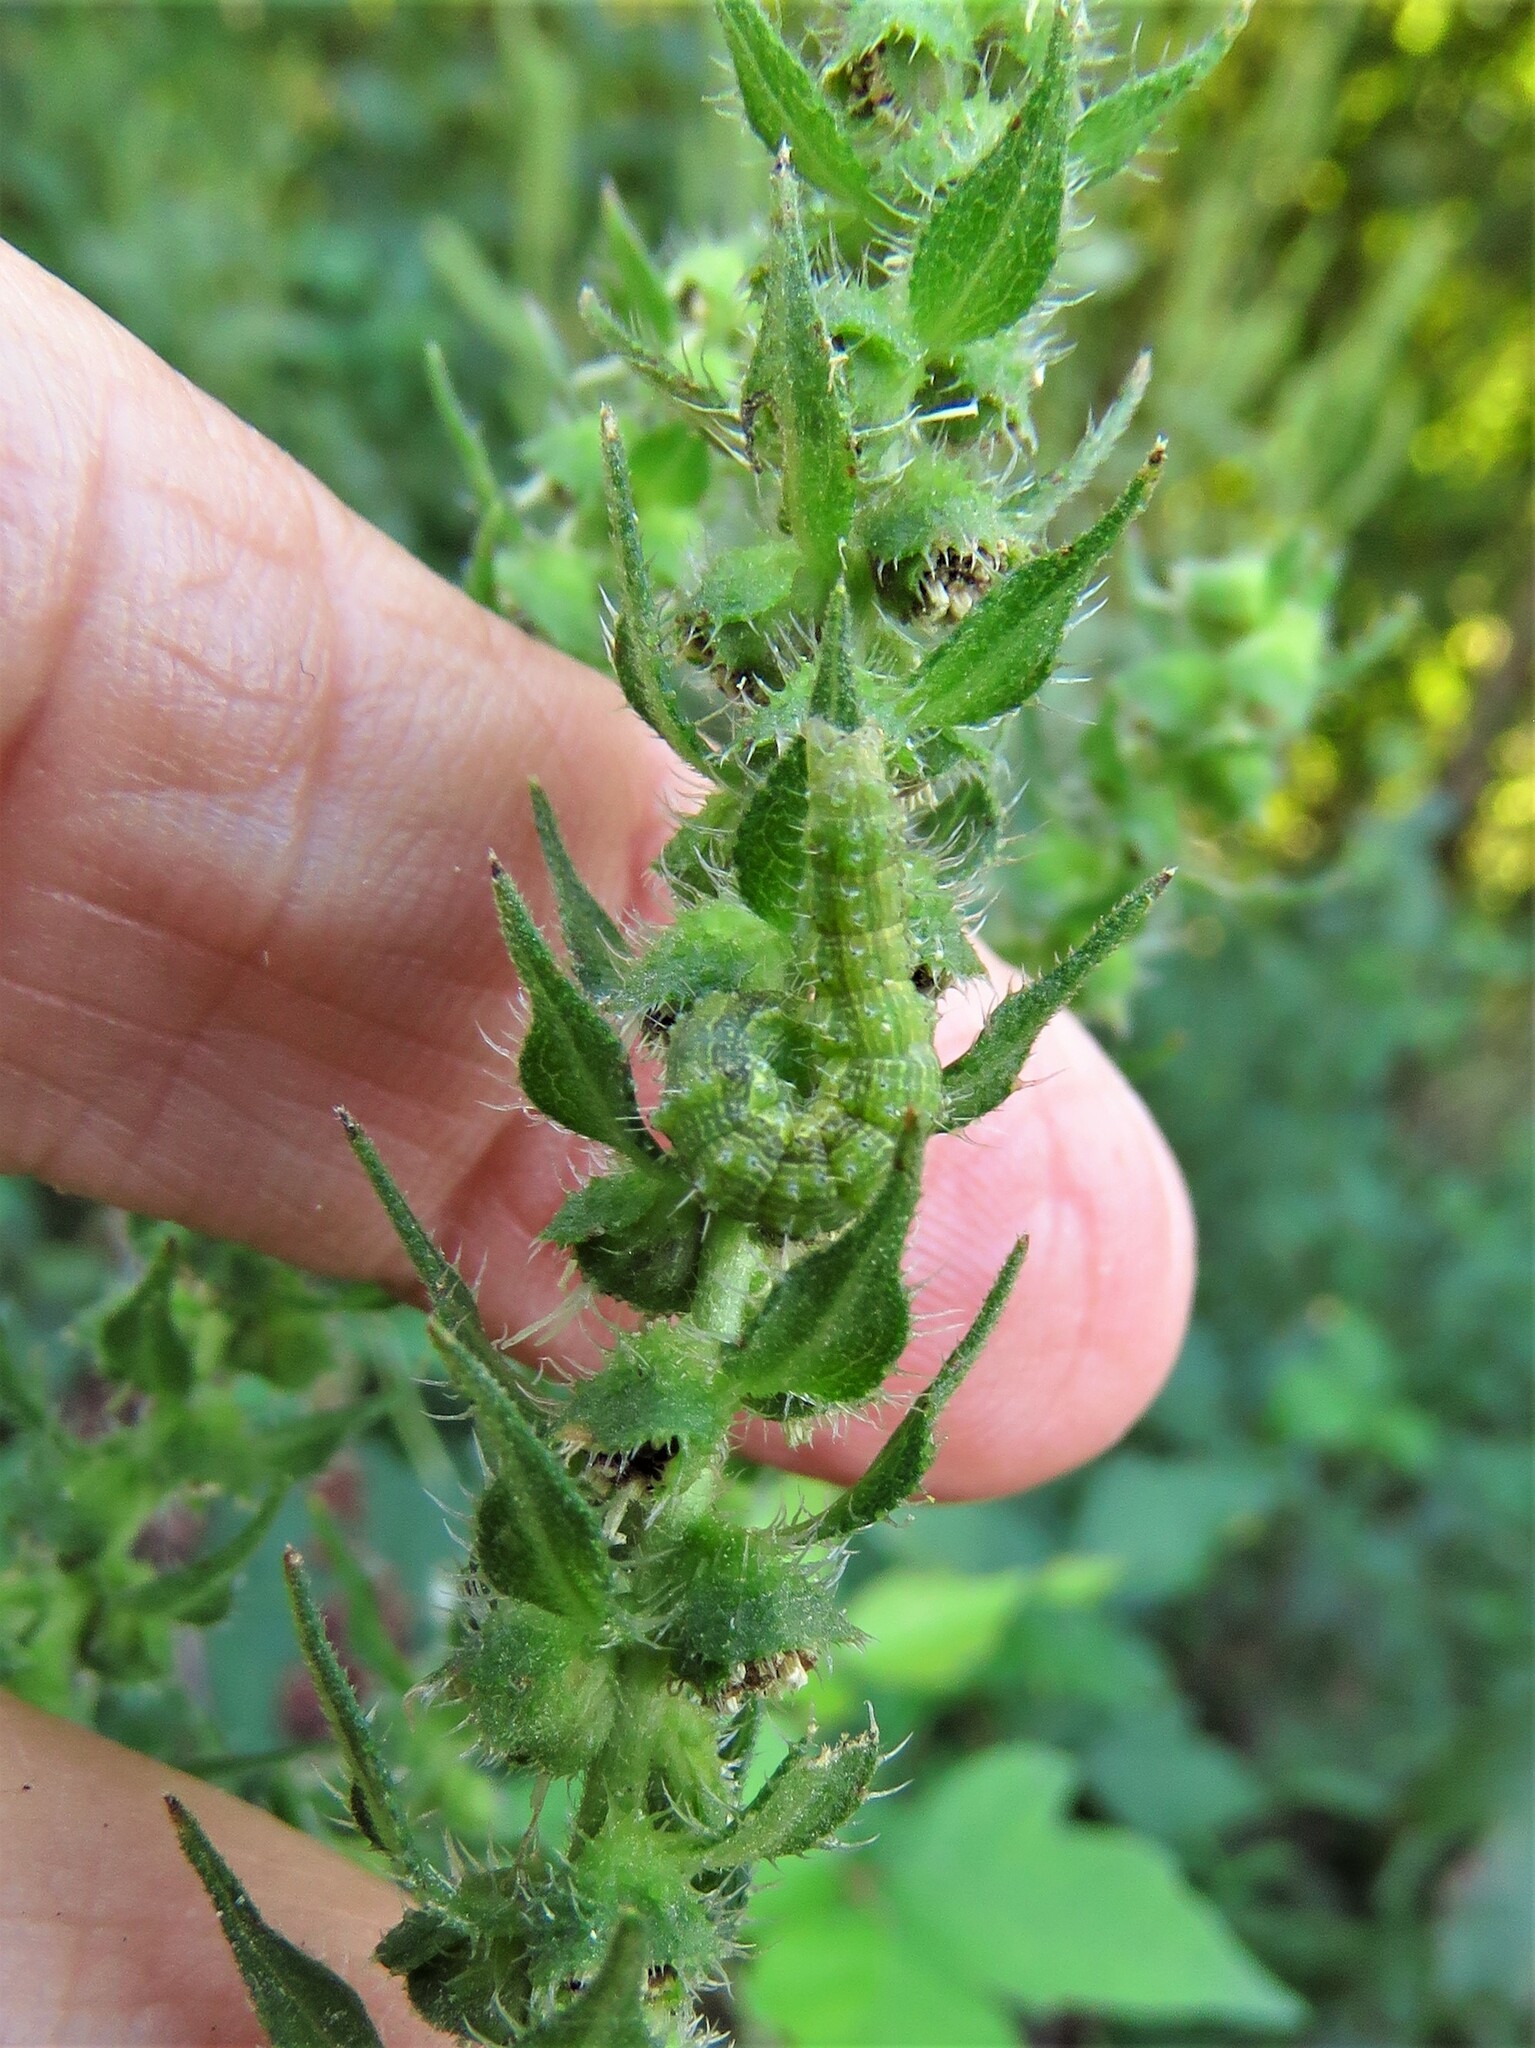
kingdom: Animalia
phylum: Arthropoda
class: Insecta
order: Lepidoptera
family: Noctuidae
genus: Schinia
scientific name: Schinia gracilenta
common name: Slender flower moth
